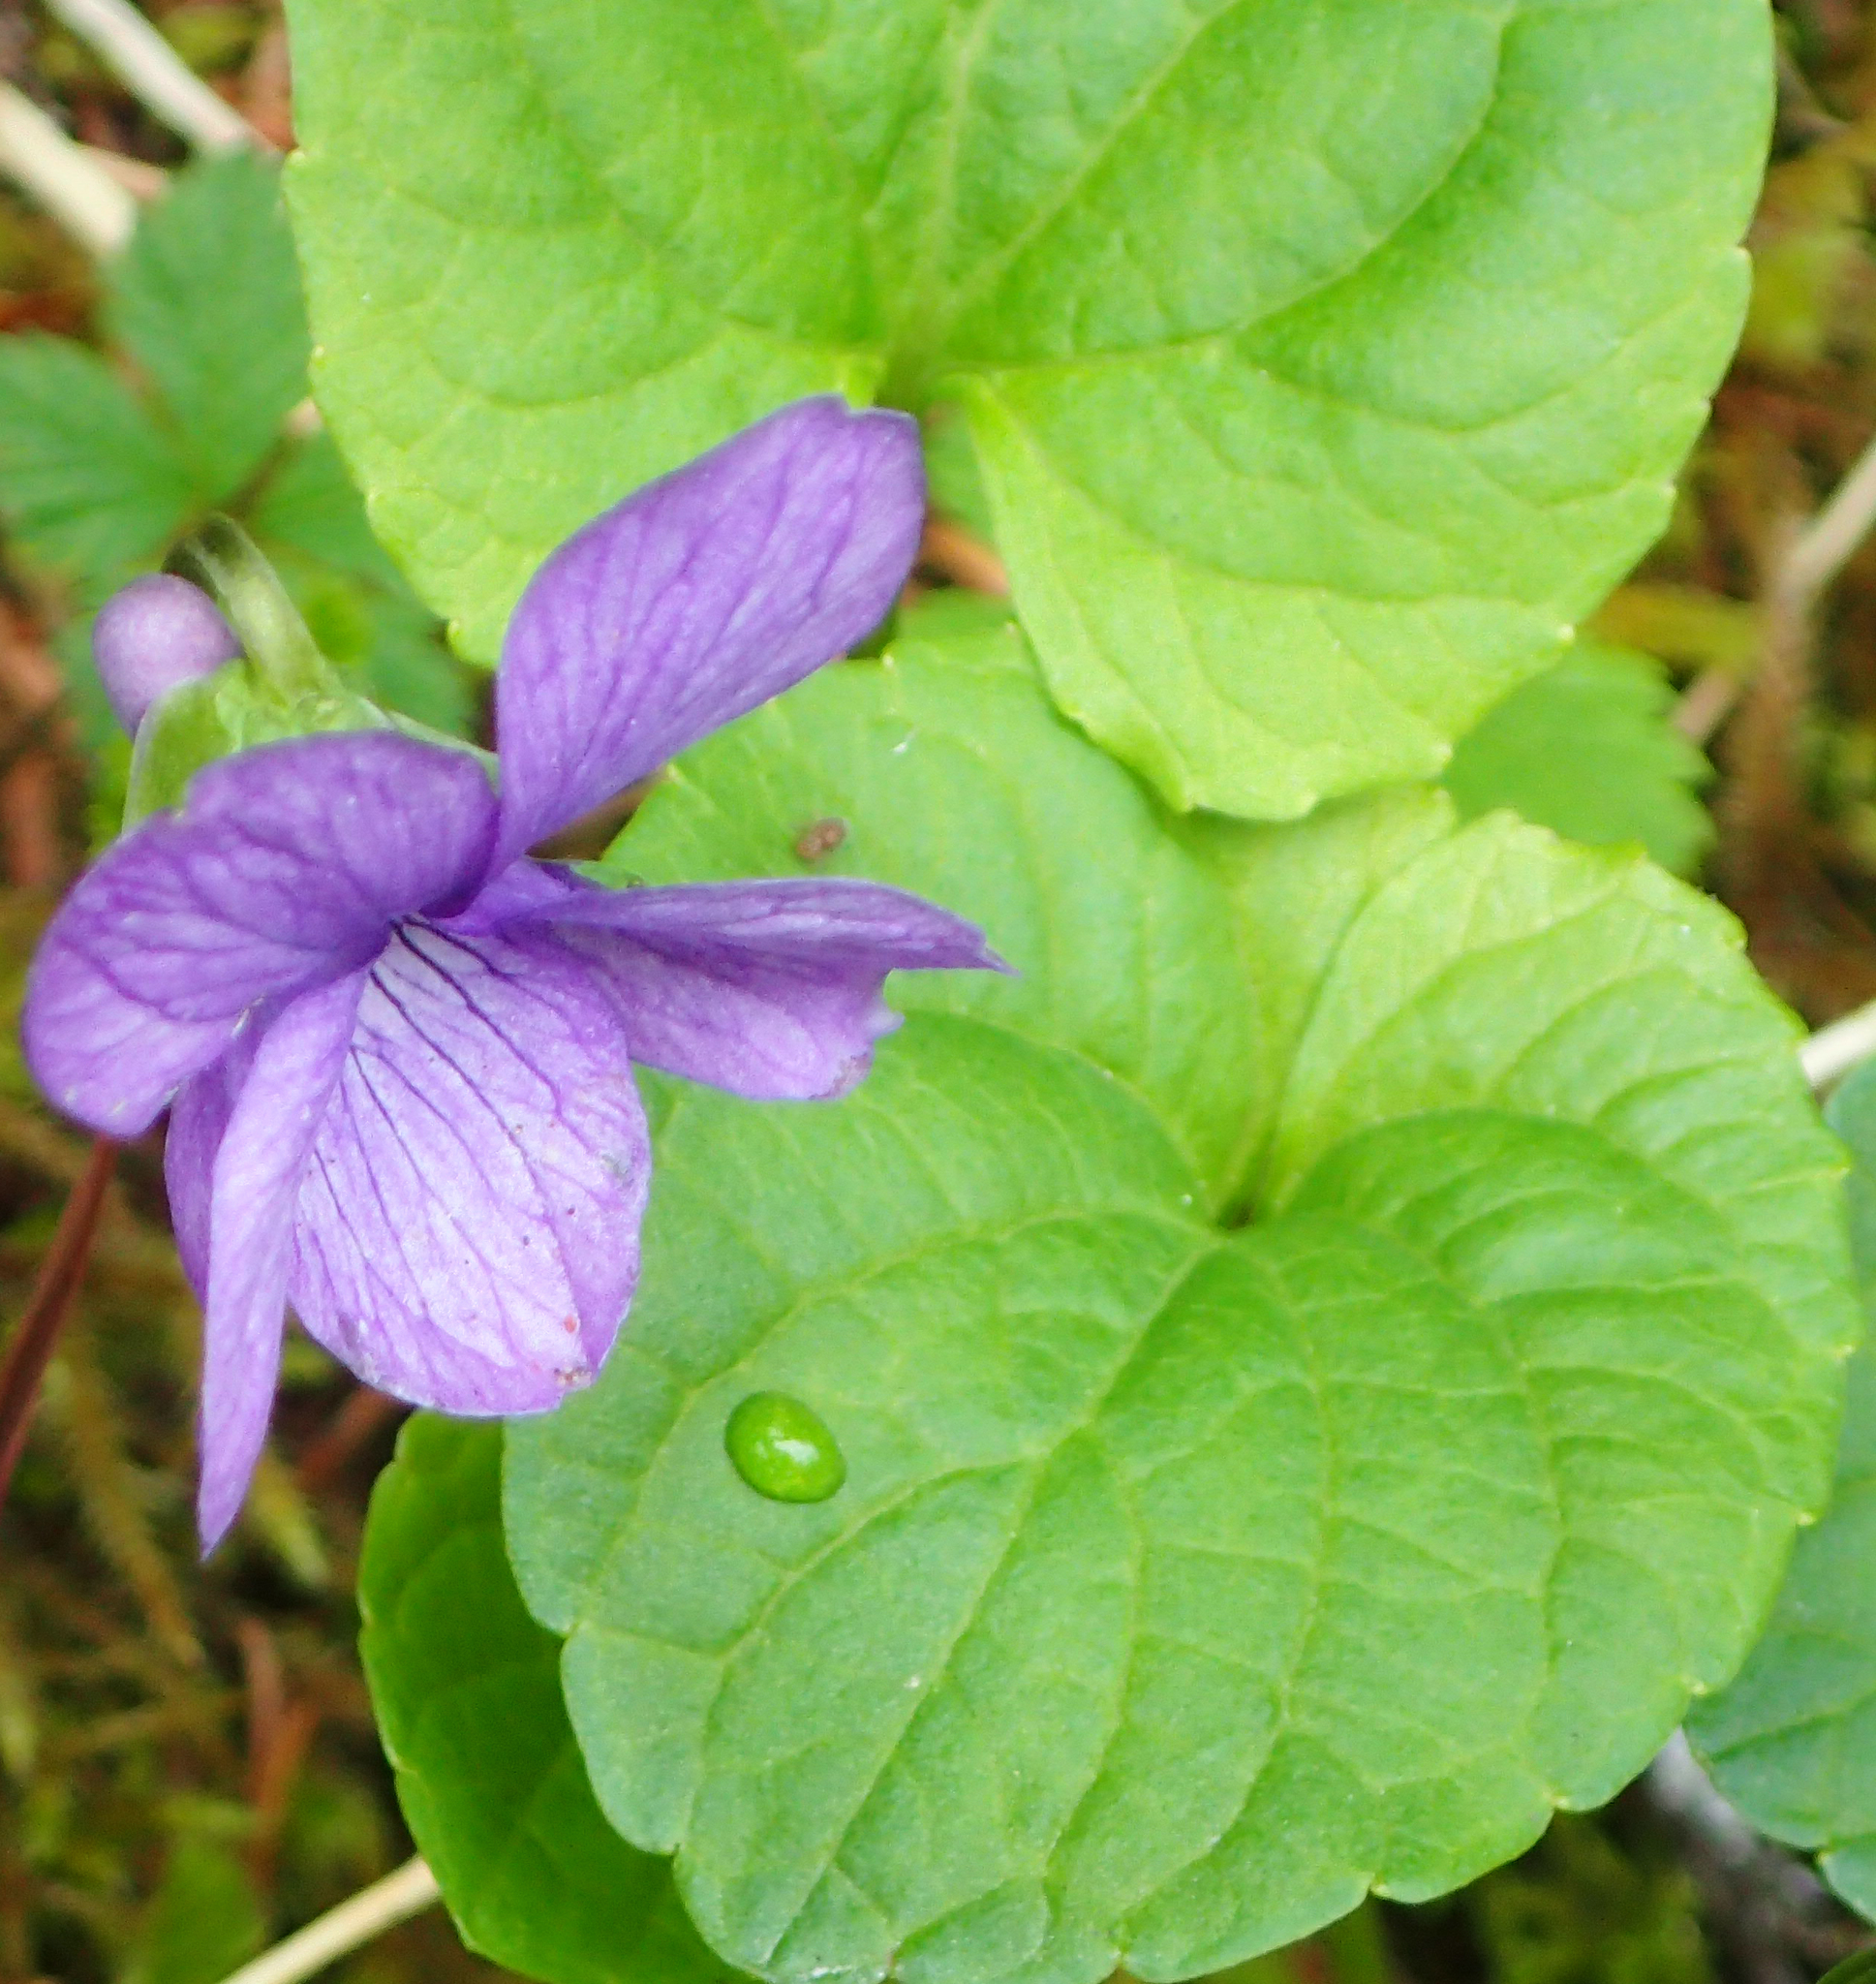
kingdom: Plantae
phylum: Tracheophyta
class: Magnoliopsida
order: Malpighiales
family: Violaceae
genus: Viola
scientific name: Viola langsdorffii
